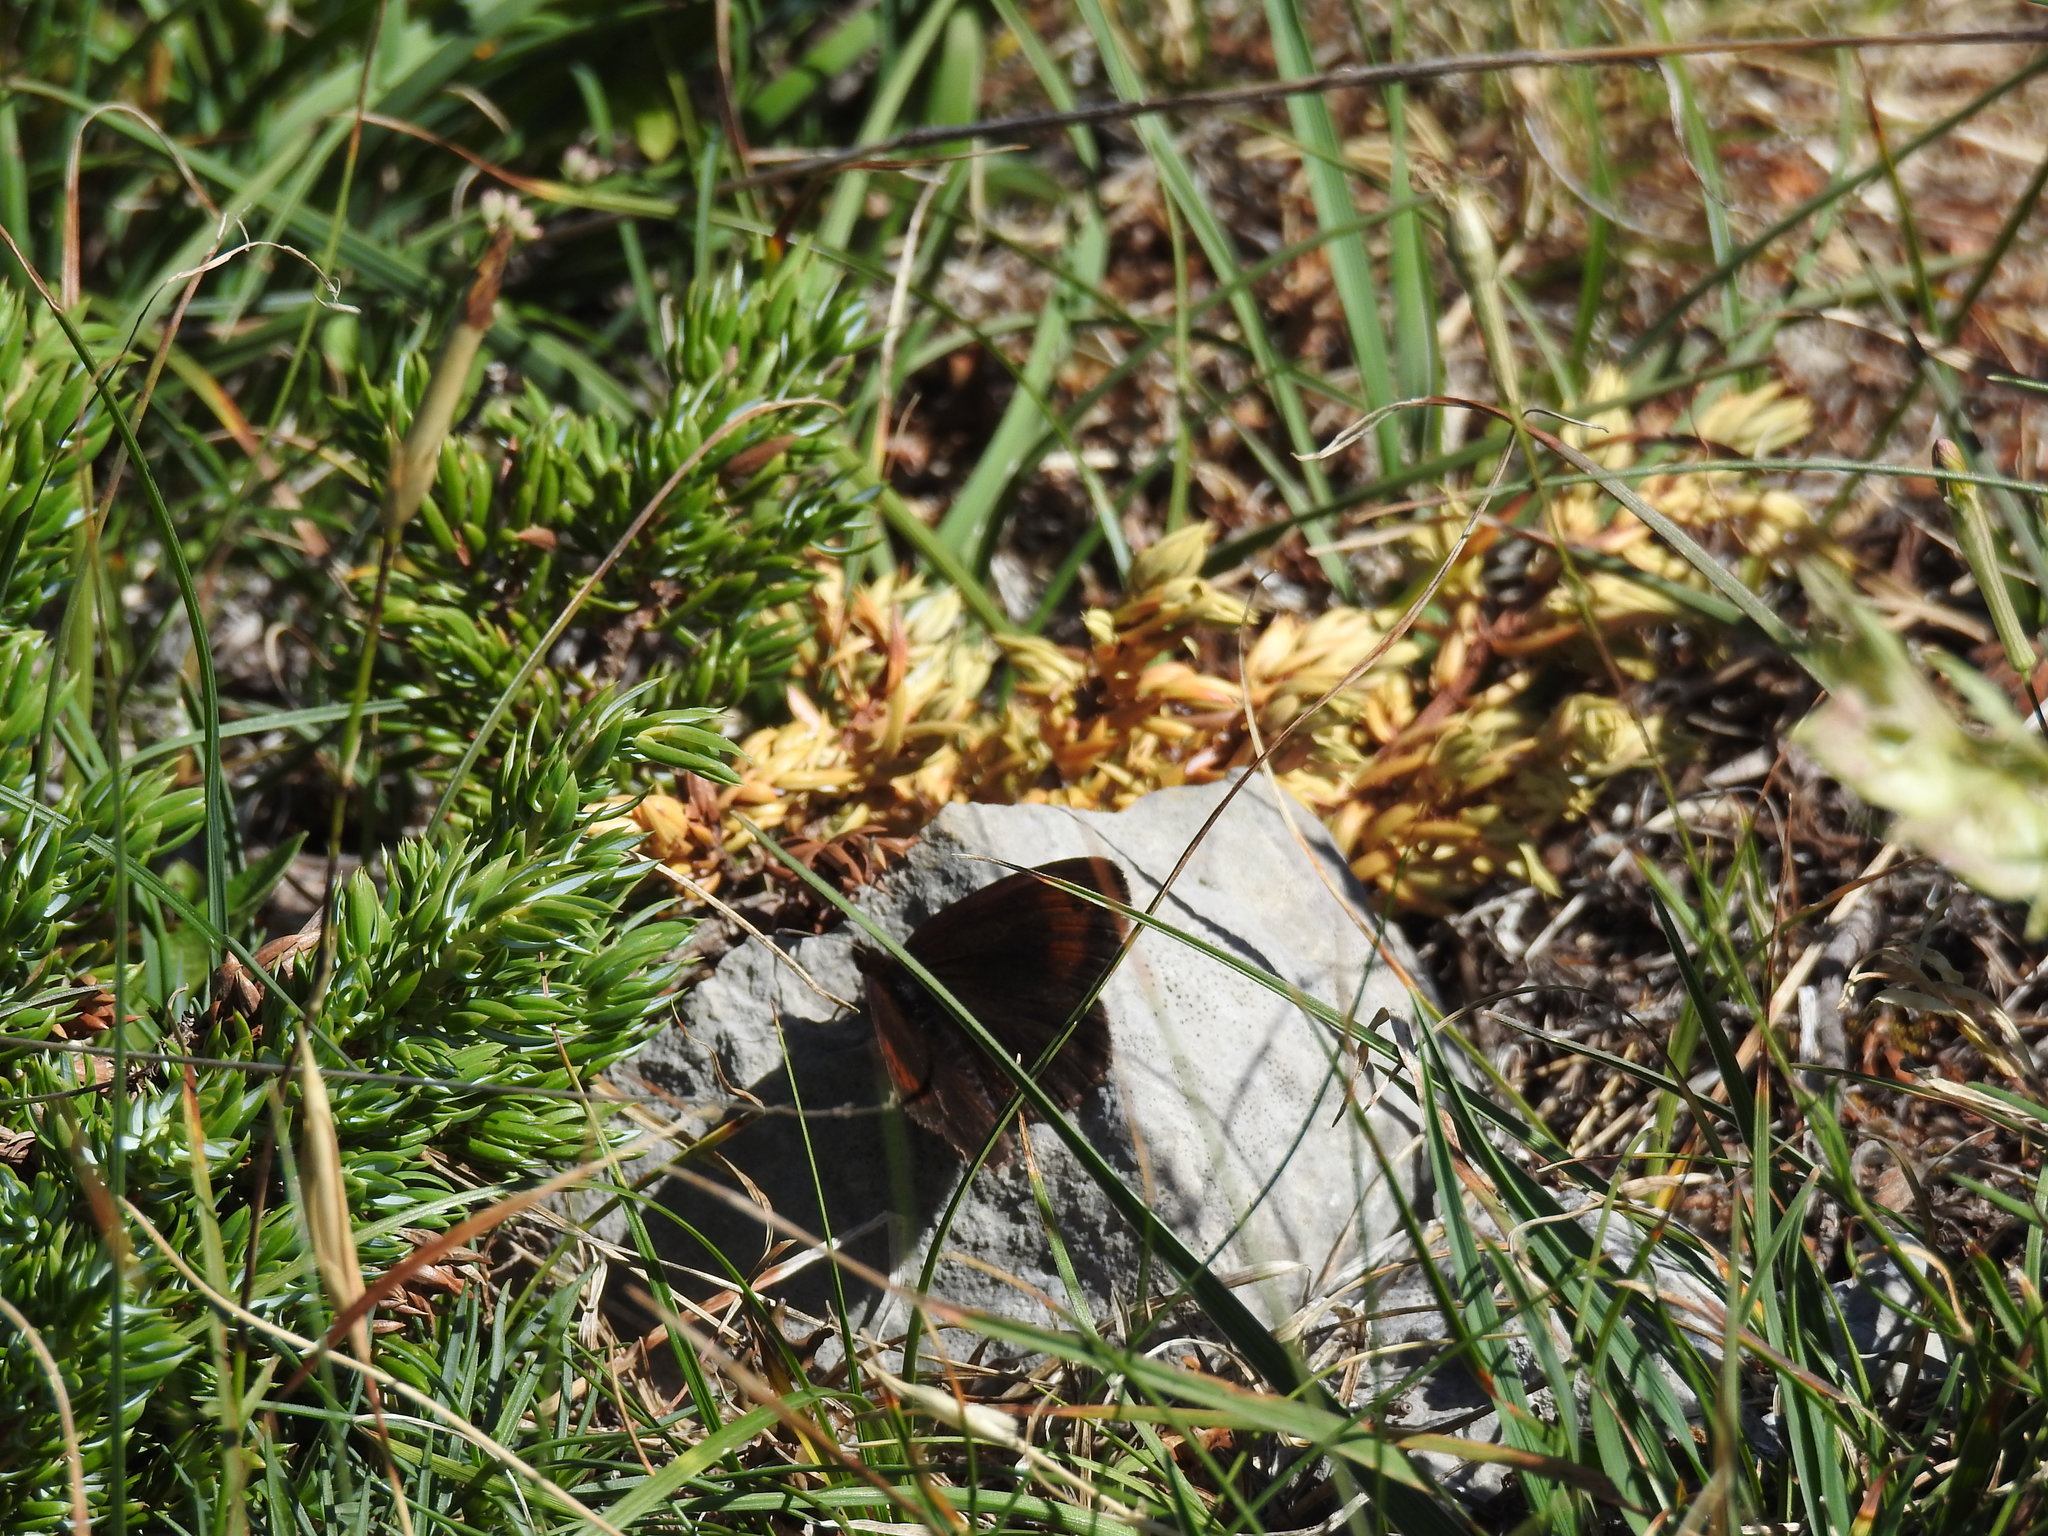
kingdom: Animalia
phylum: Arthropoda
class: Insecta
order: Lepidoptera
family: Nymphalidae
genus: Erebia
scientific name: Erebia pronoe
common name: Water ringlet
